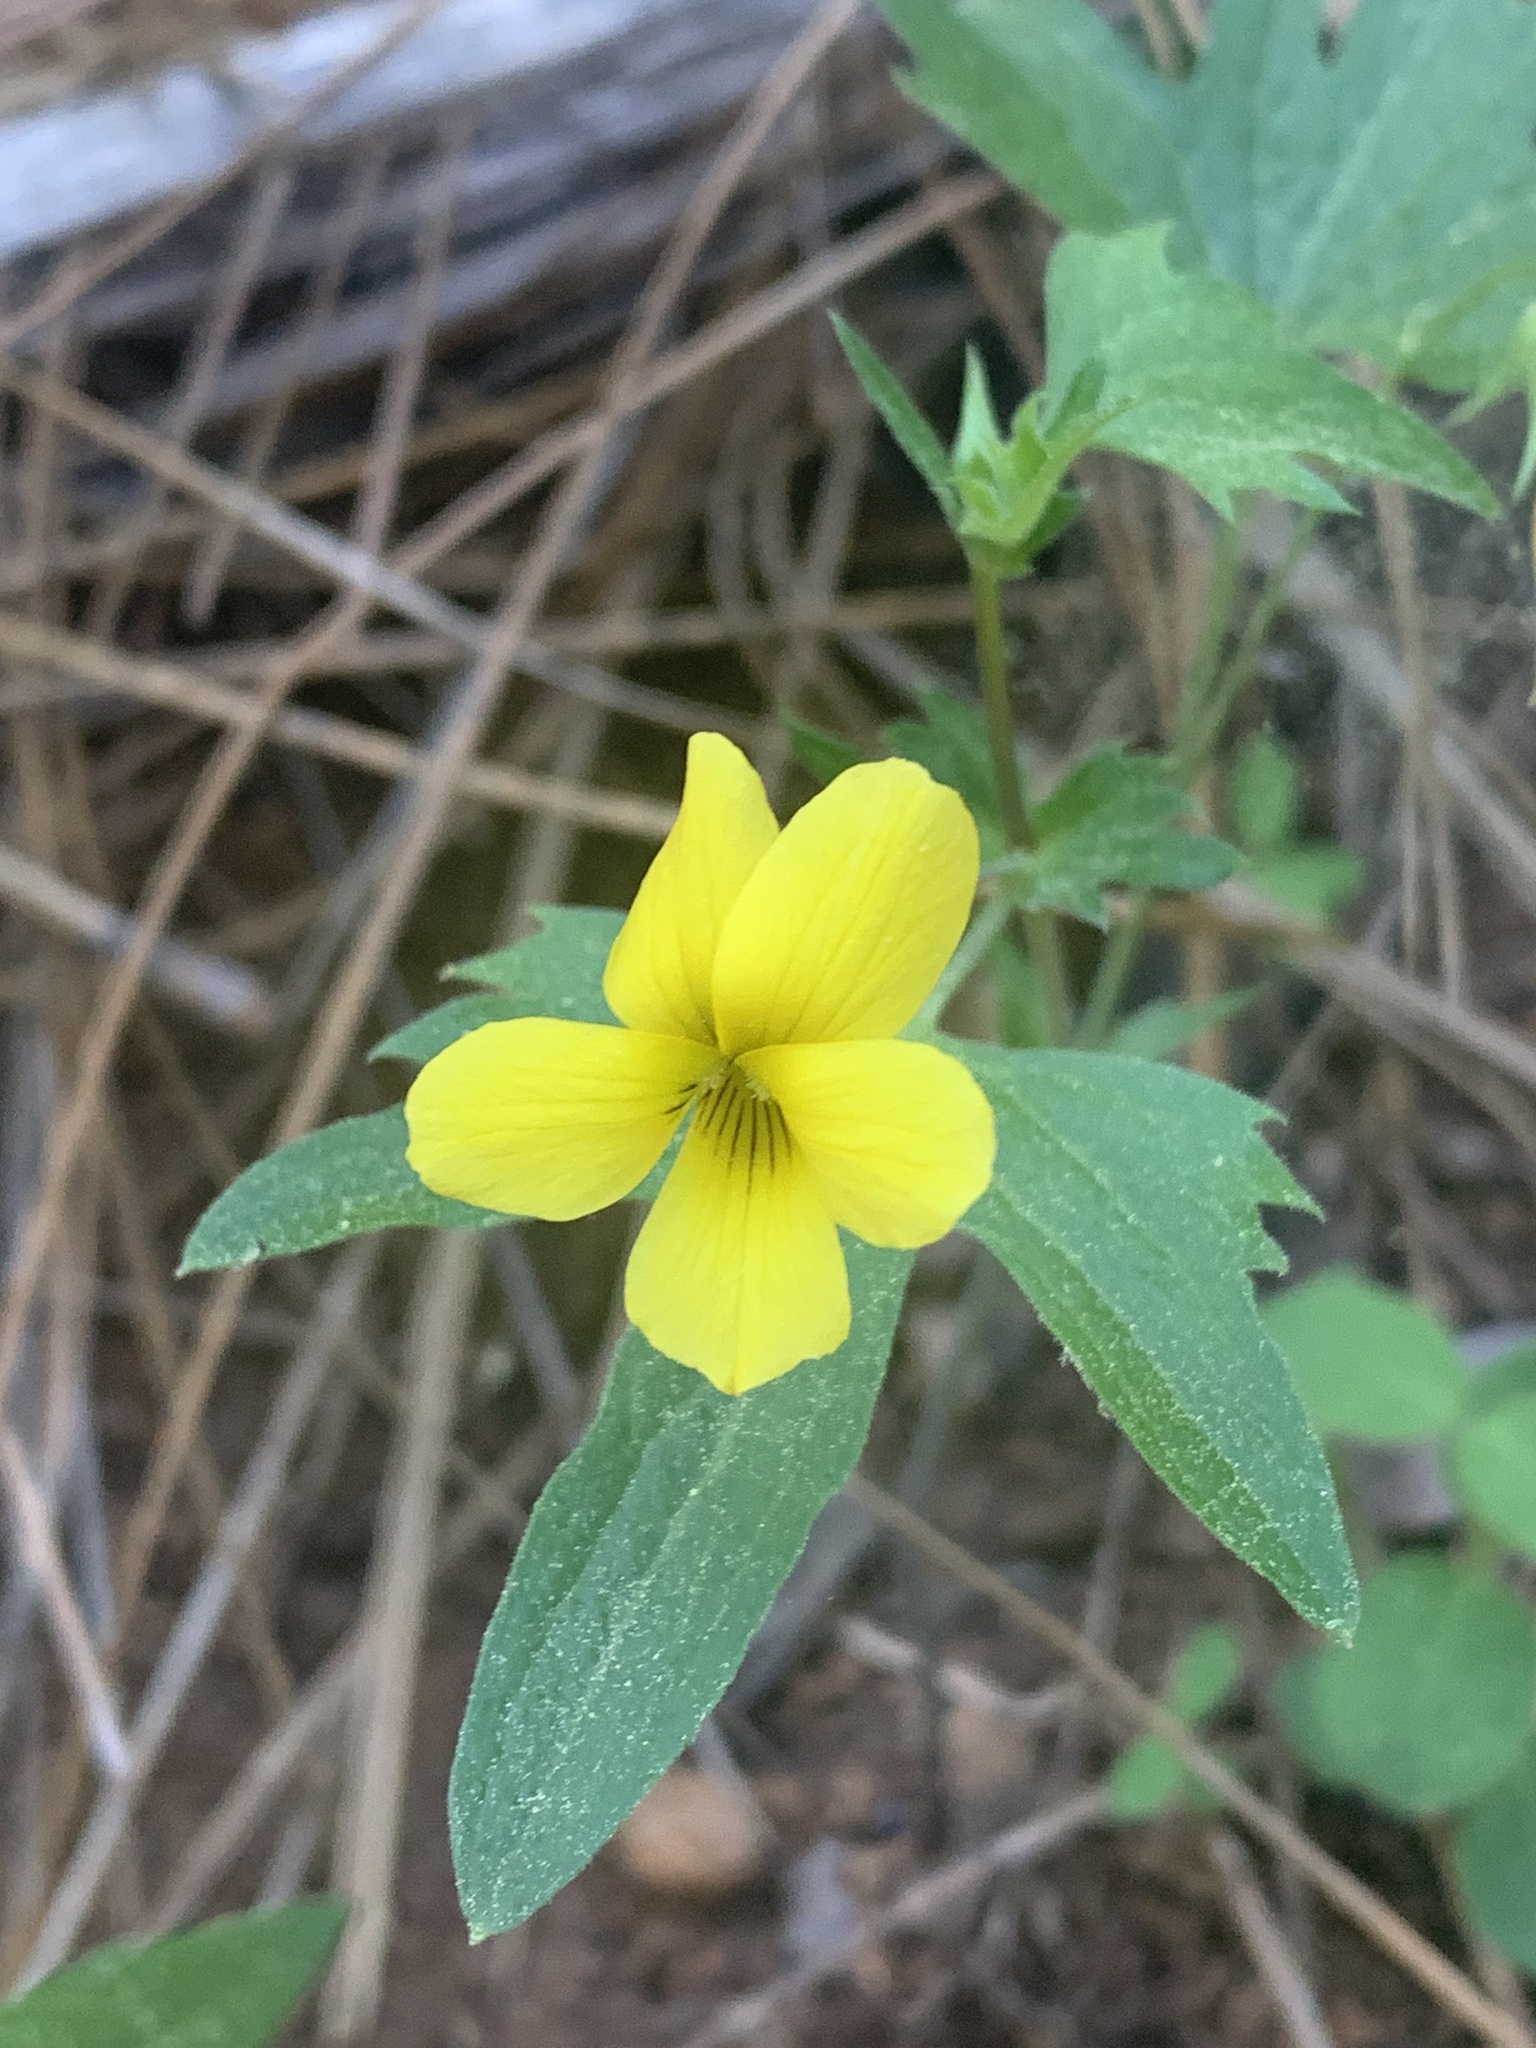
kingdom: Plantae
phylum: Tracheophyta
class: Magnoliopsida
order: Malpighiales
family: Violaceae
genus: Viola
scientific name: Viola lobata
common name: Pine violet
